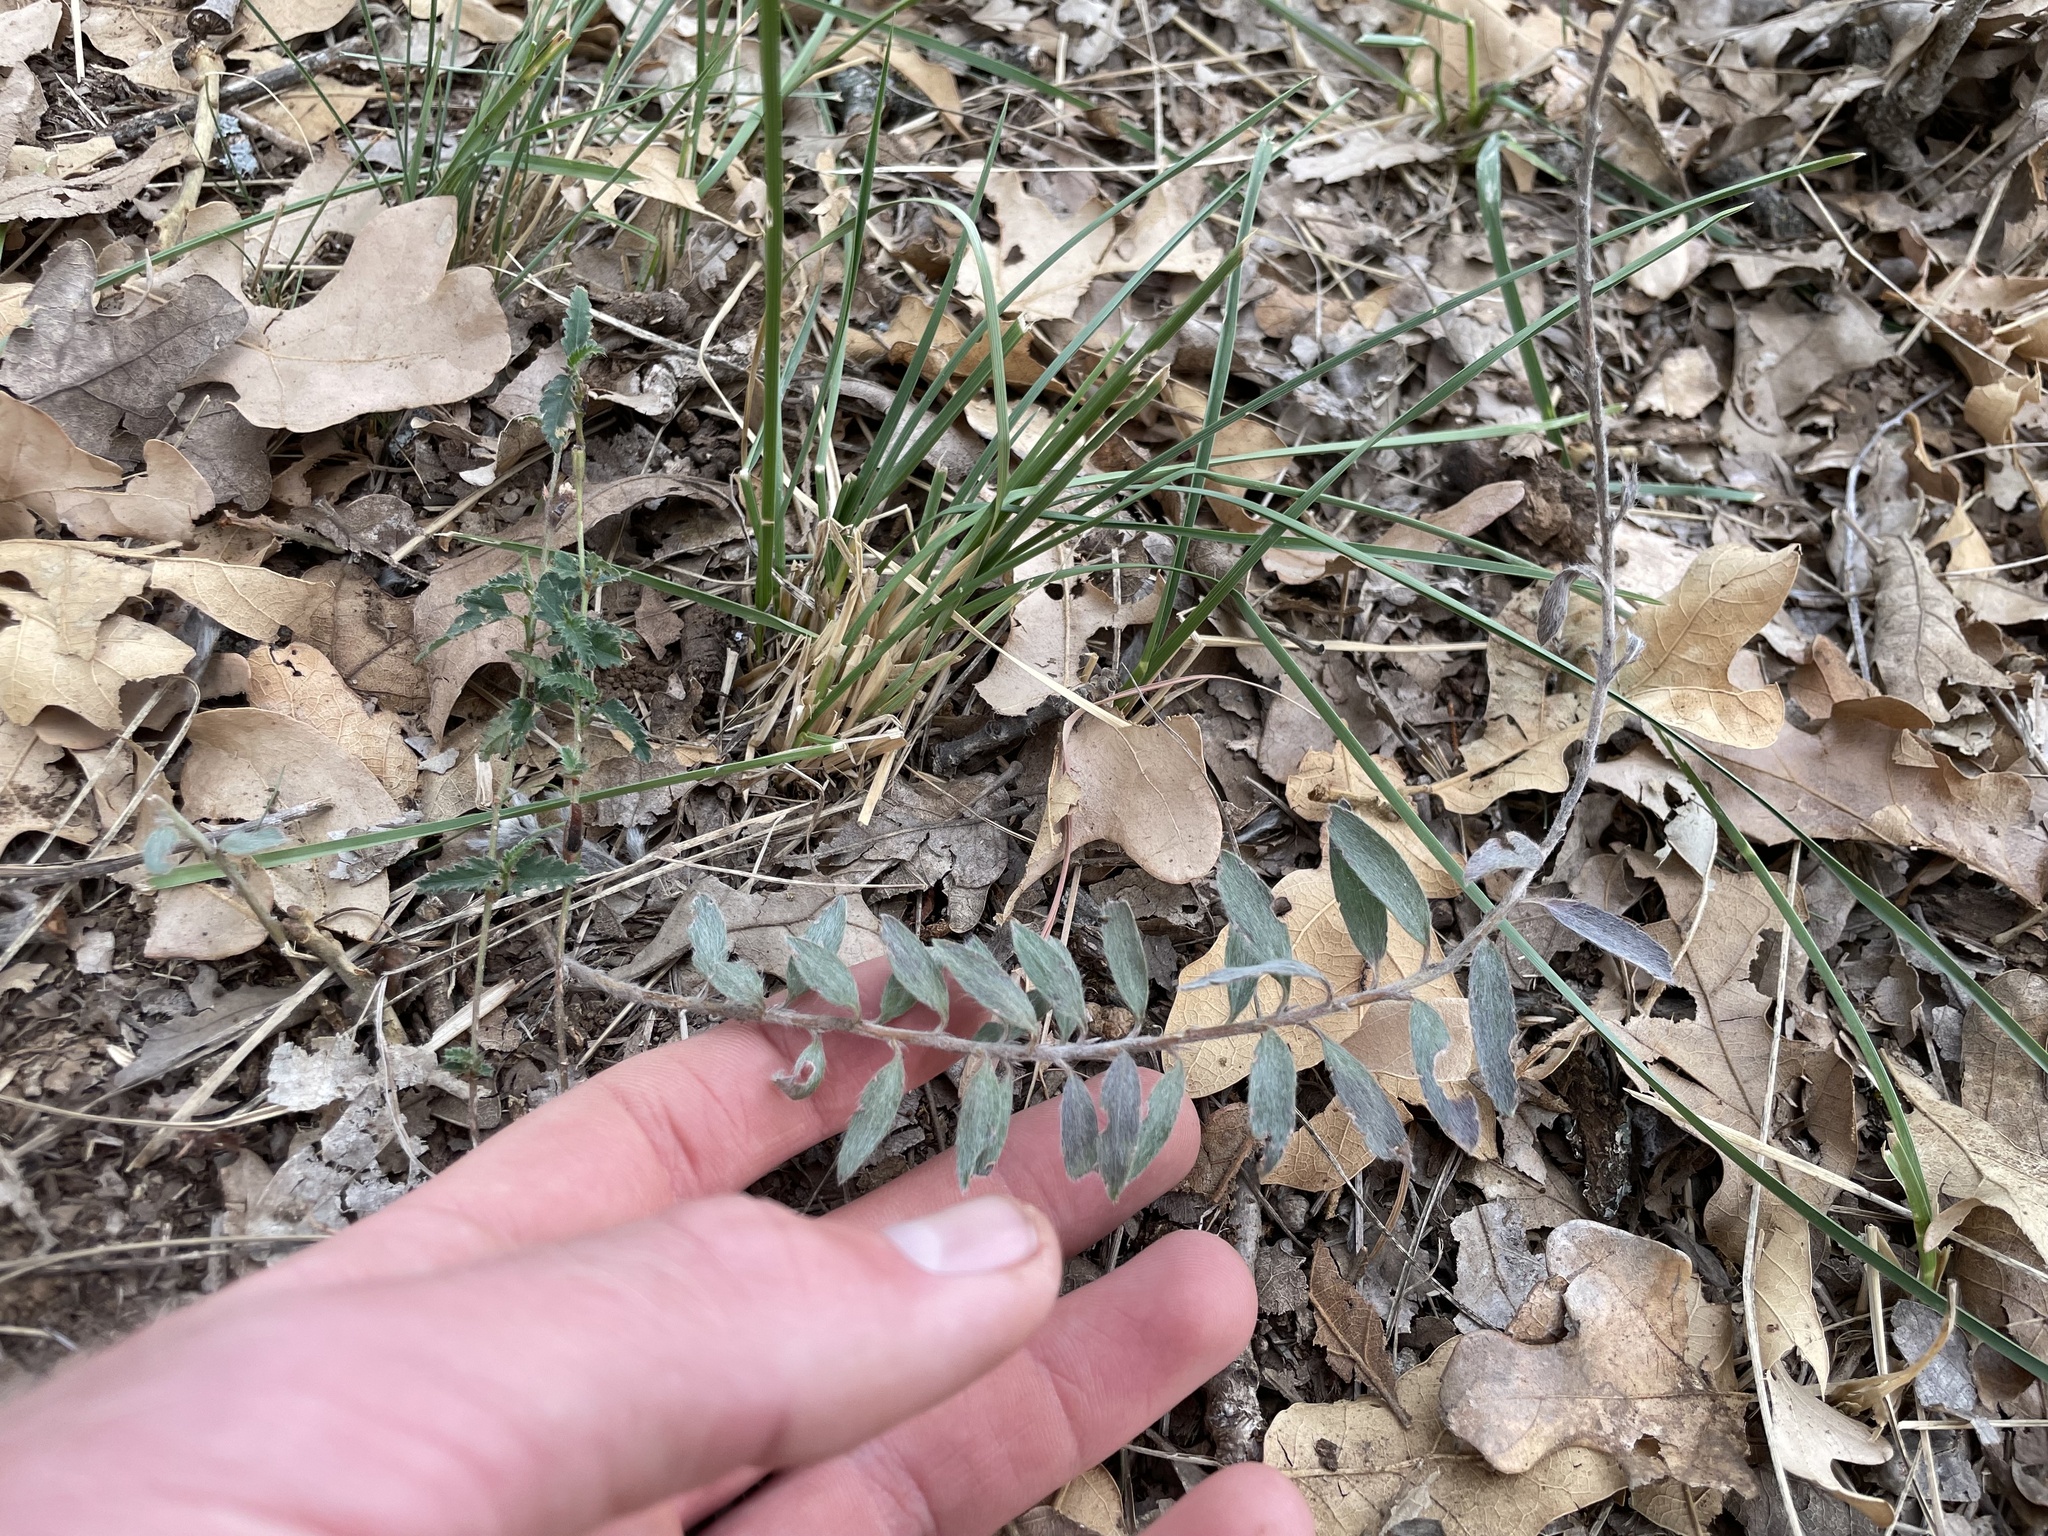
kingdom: Plantae
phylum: Tracheophyta
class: Magnoliopsida
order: Solanales
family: Convolvulaceae
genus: Evolvulus
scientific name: Evolvulus nuttallianus
